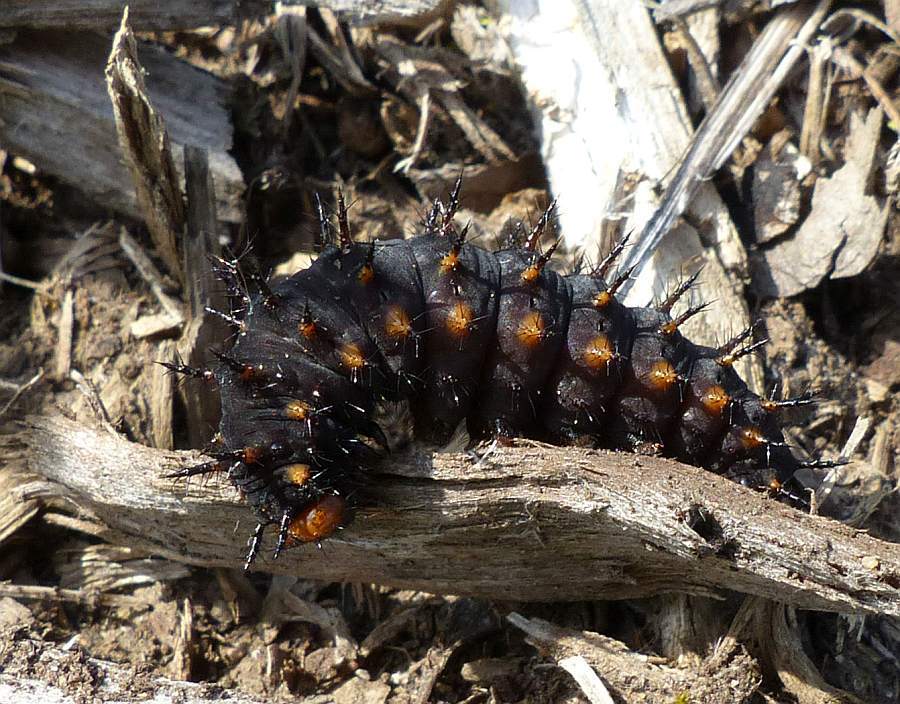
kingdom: Animalia
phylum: Arthropoda
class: Insecta
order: Lepidoptera
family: Nymphalidae
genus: Speyeria
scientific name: Speyeria cybele
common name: Great spangled fritillary
